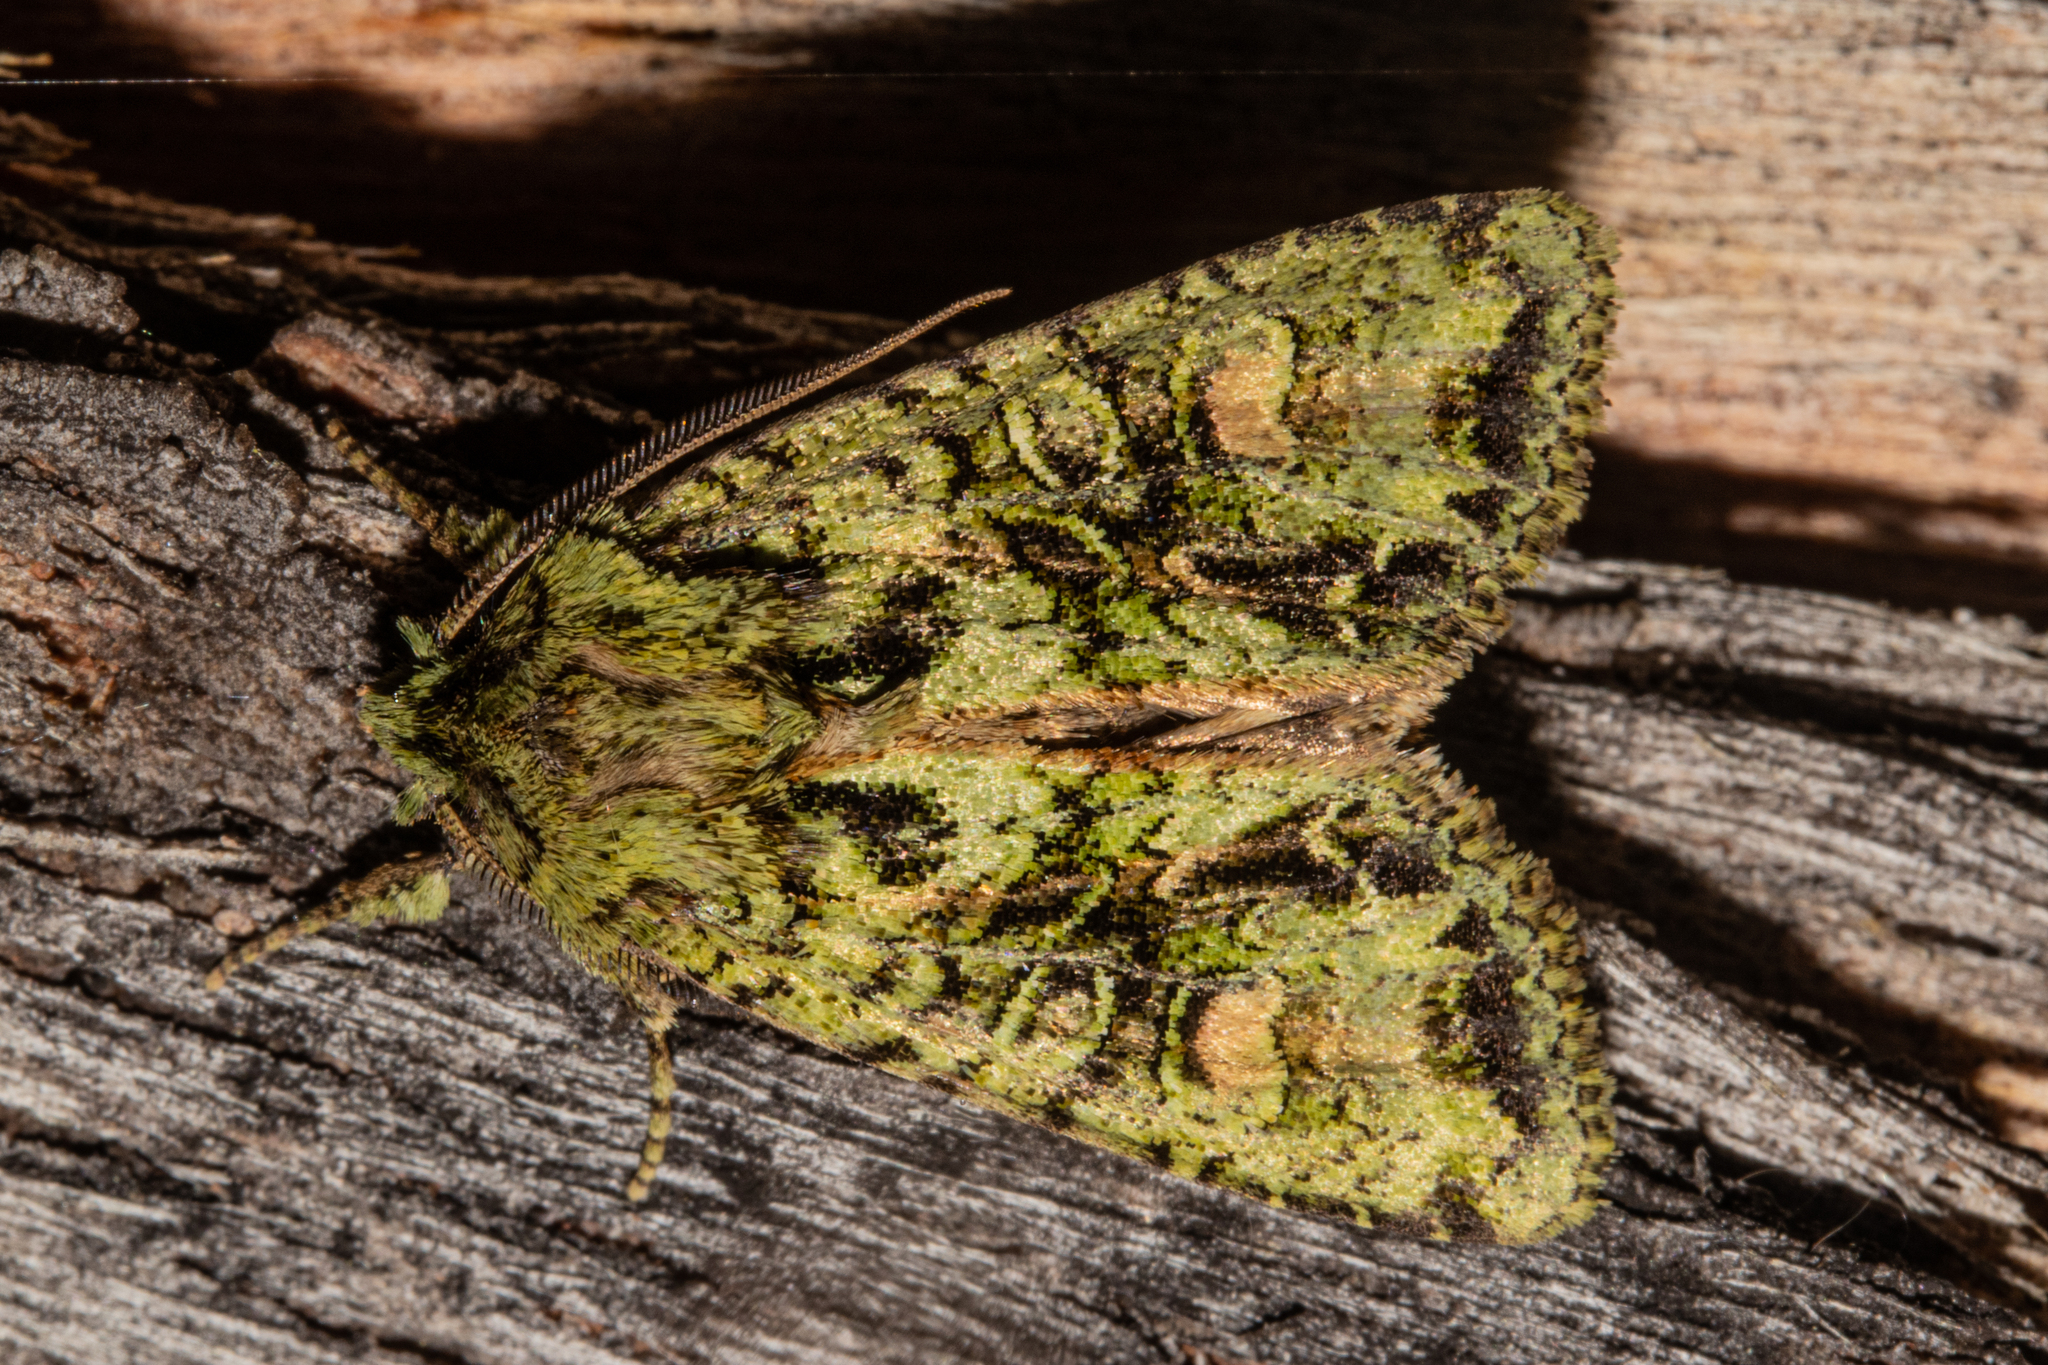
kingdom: Animalia
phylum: Arthropoda
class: Insecta
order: Lepidoptera
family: Noctuidae
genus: Ichneutica
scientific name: Ichneutica
